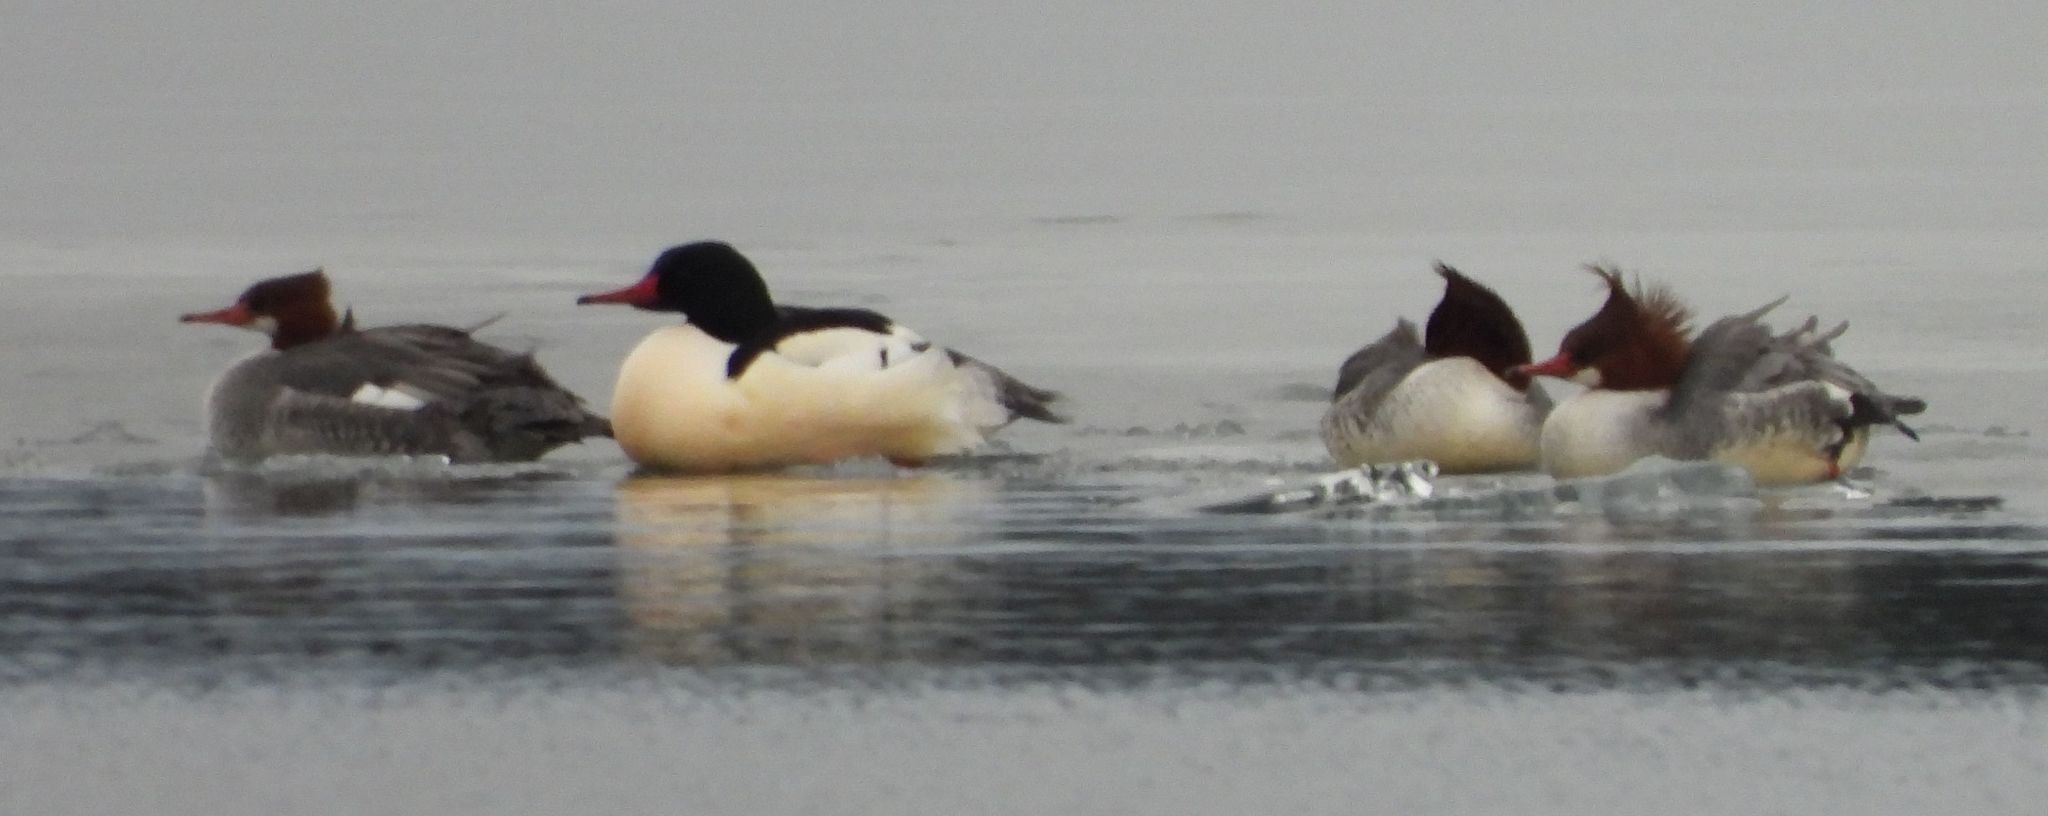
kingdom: Animalia
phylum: Chordata
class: Aves
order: Anseriformes
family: Anatidae
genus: Mergus
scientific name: Mergus merganser
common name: Common merganser
